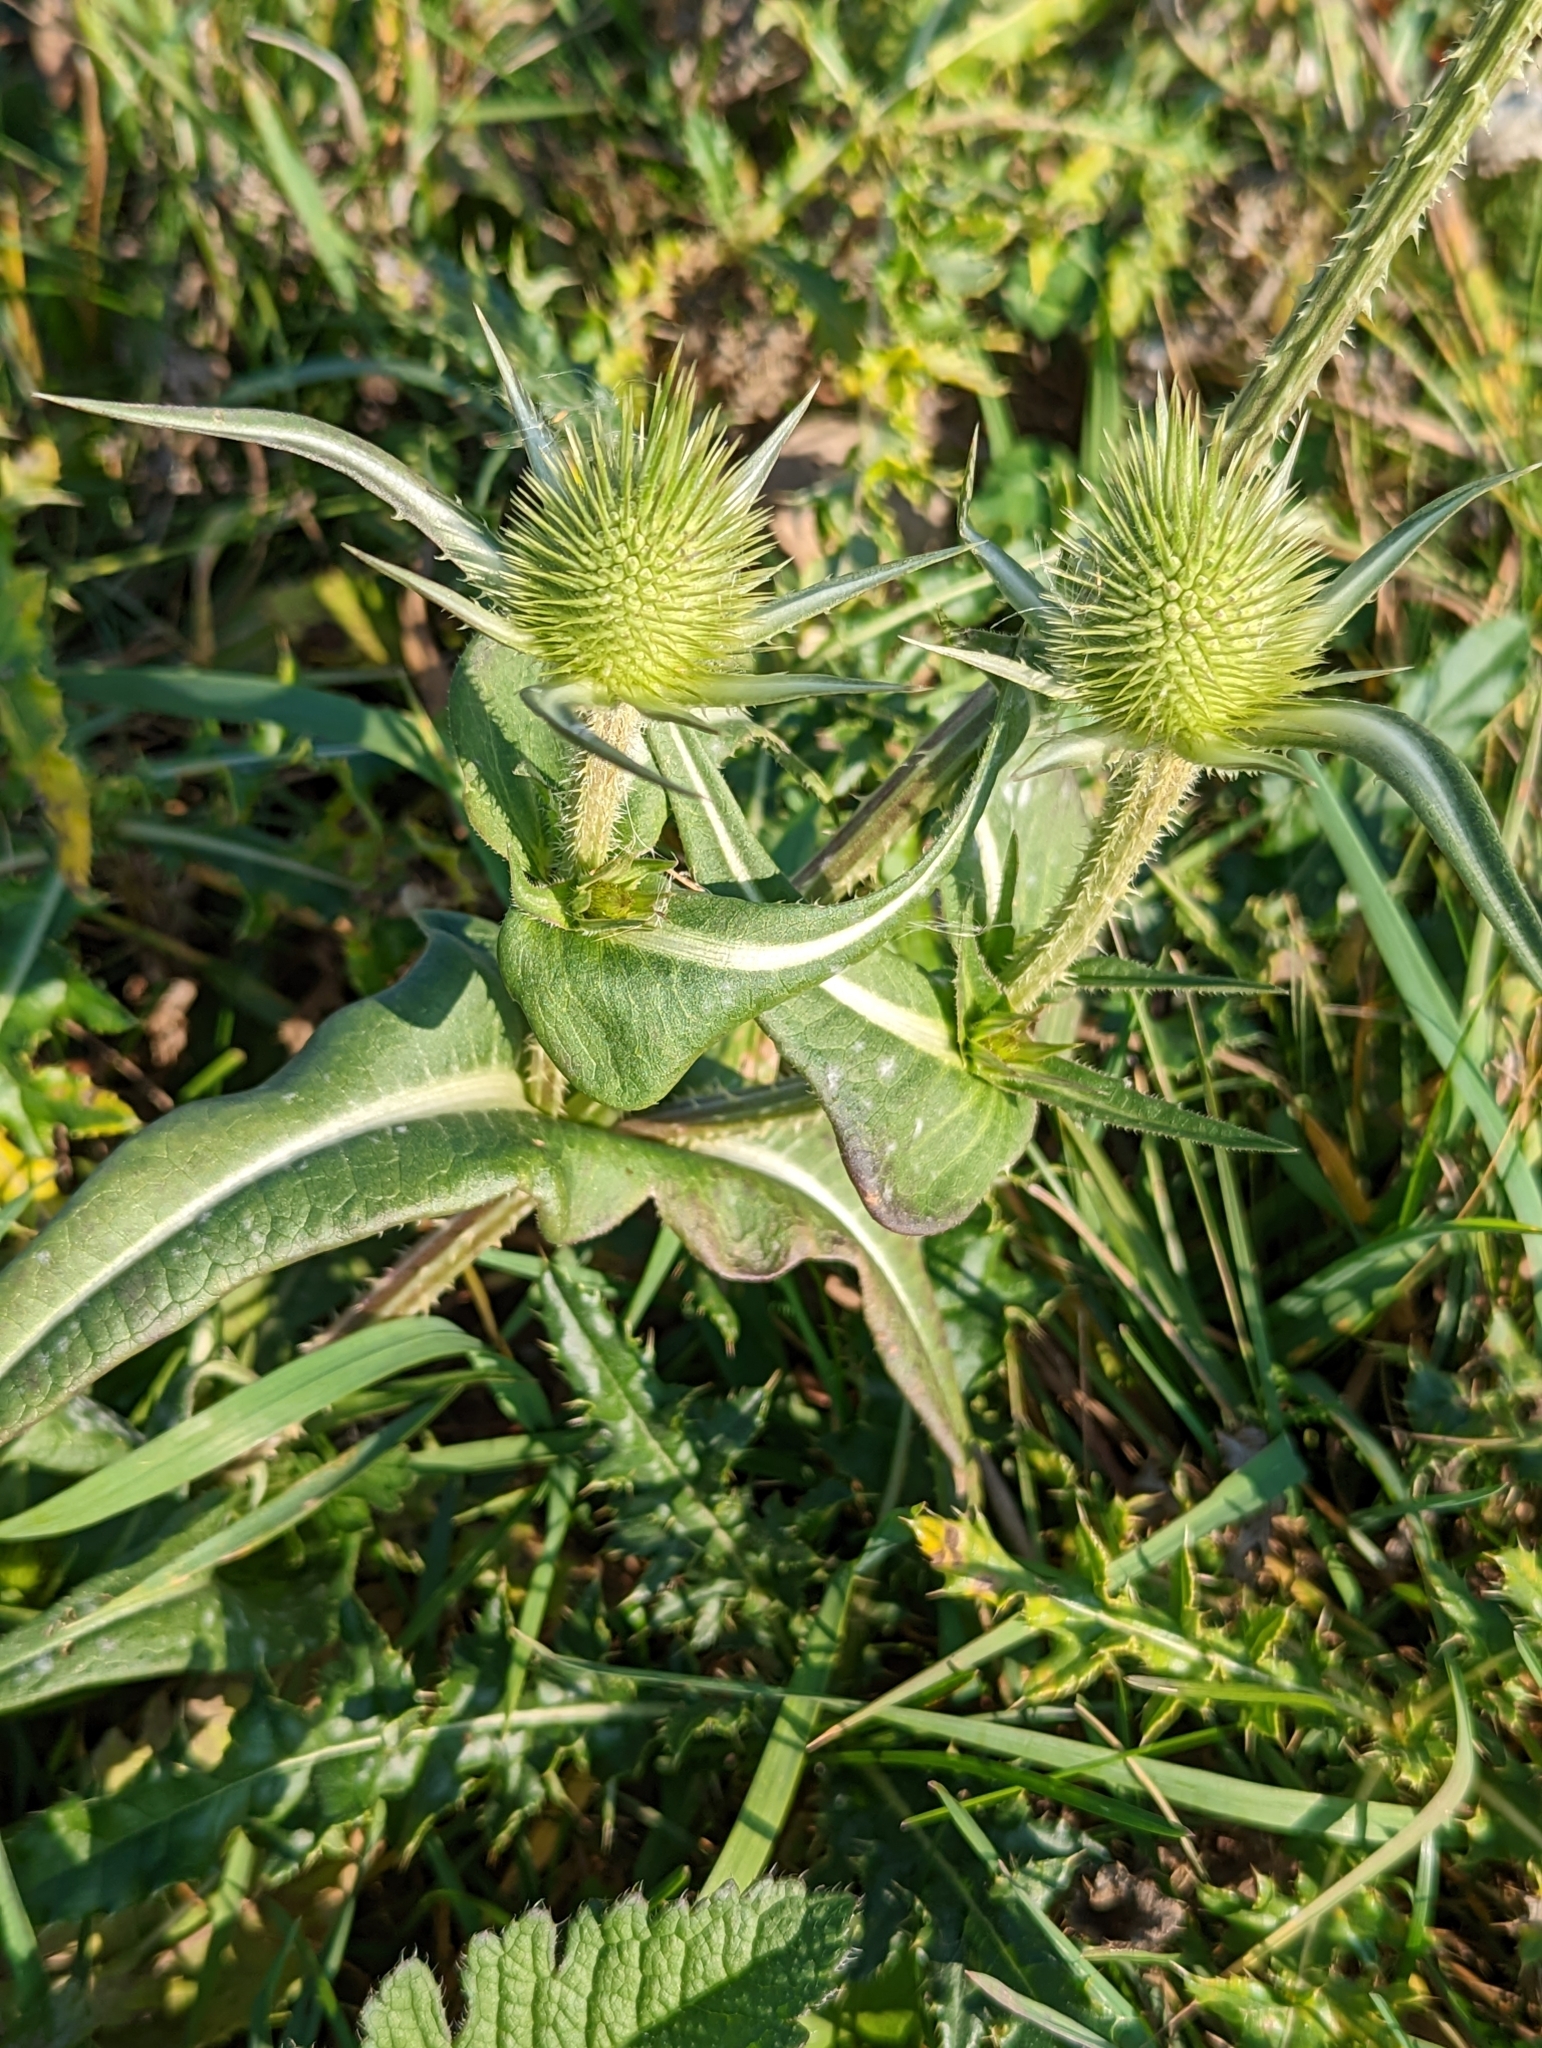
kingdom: Plantae
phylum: Tracheophyta
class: Magnoliopsida
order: Dipsacales
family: Caprifoliaceae
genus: Dipsacus
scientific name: Dipsacus laciniatus
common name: Cut-leaved teasel
